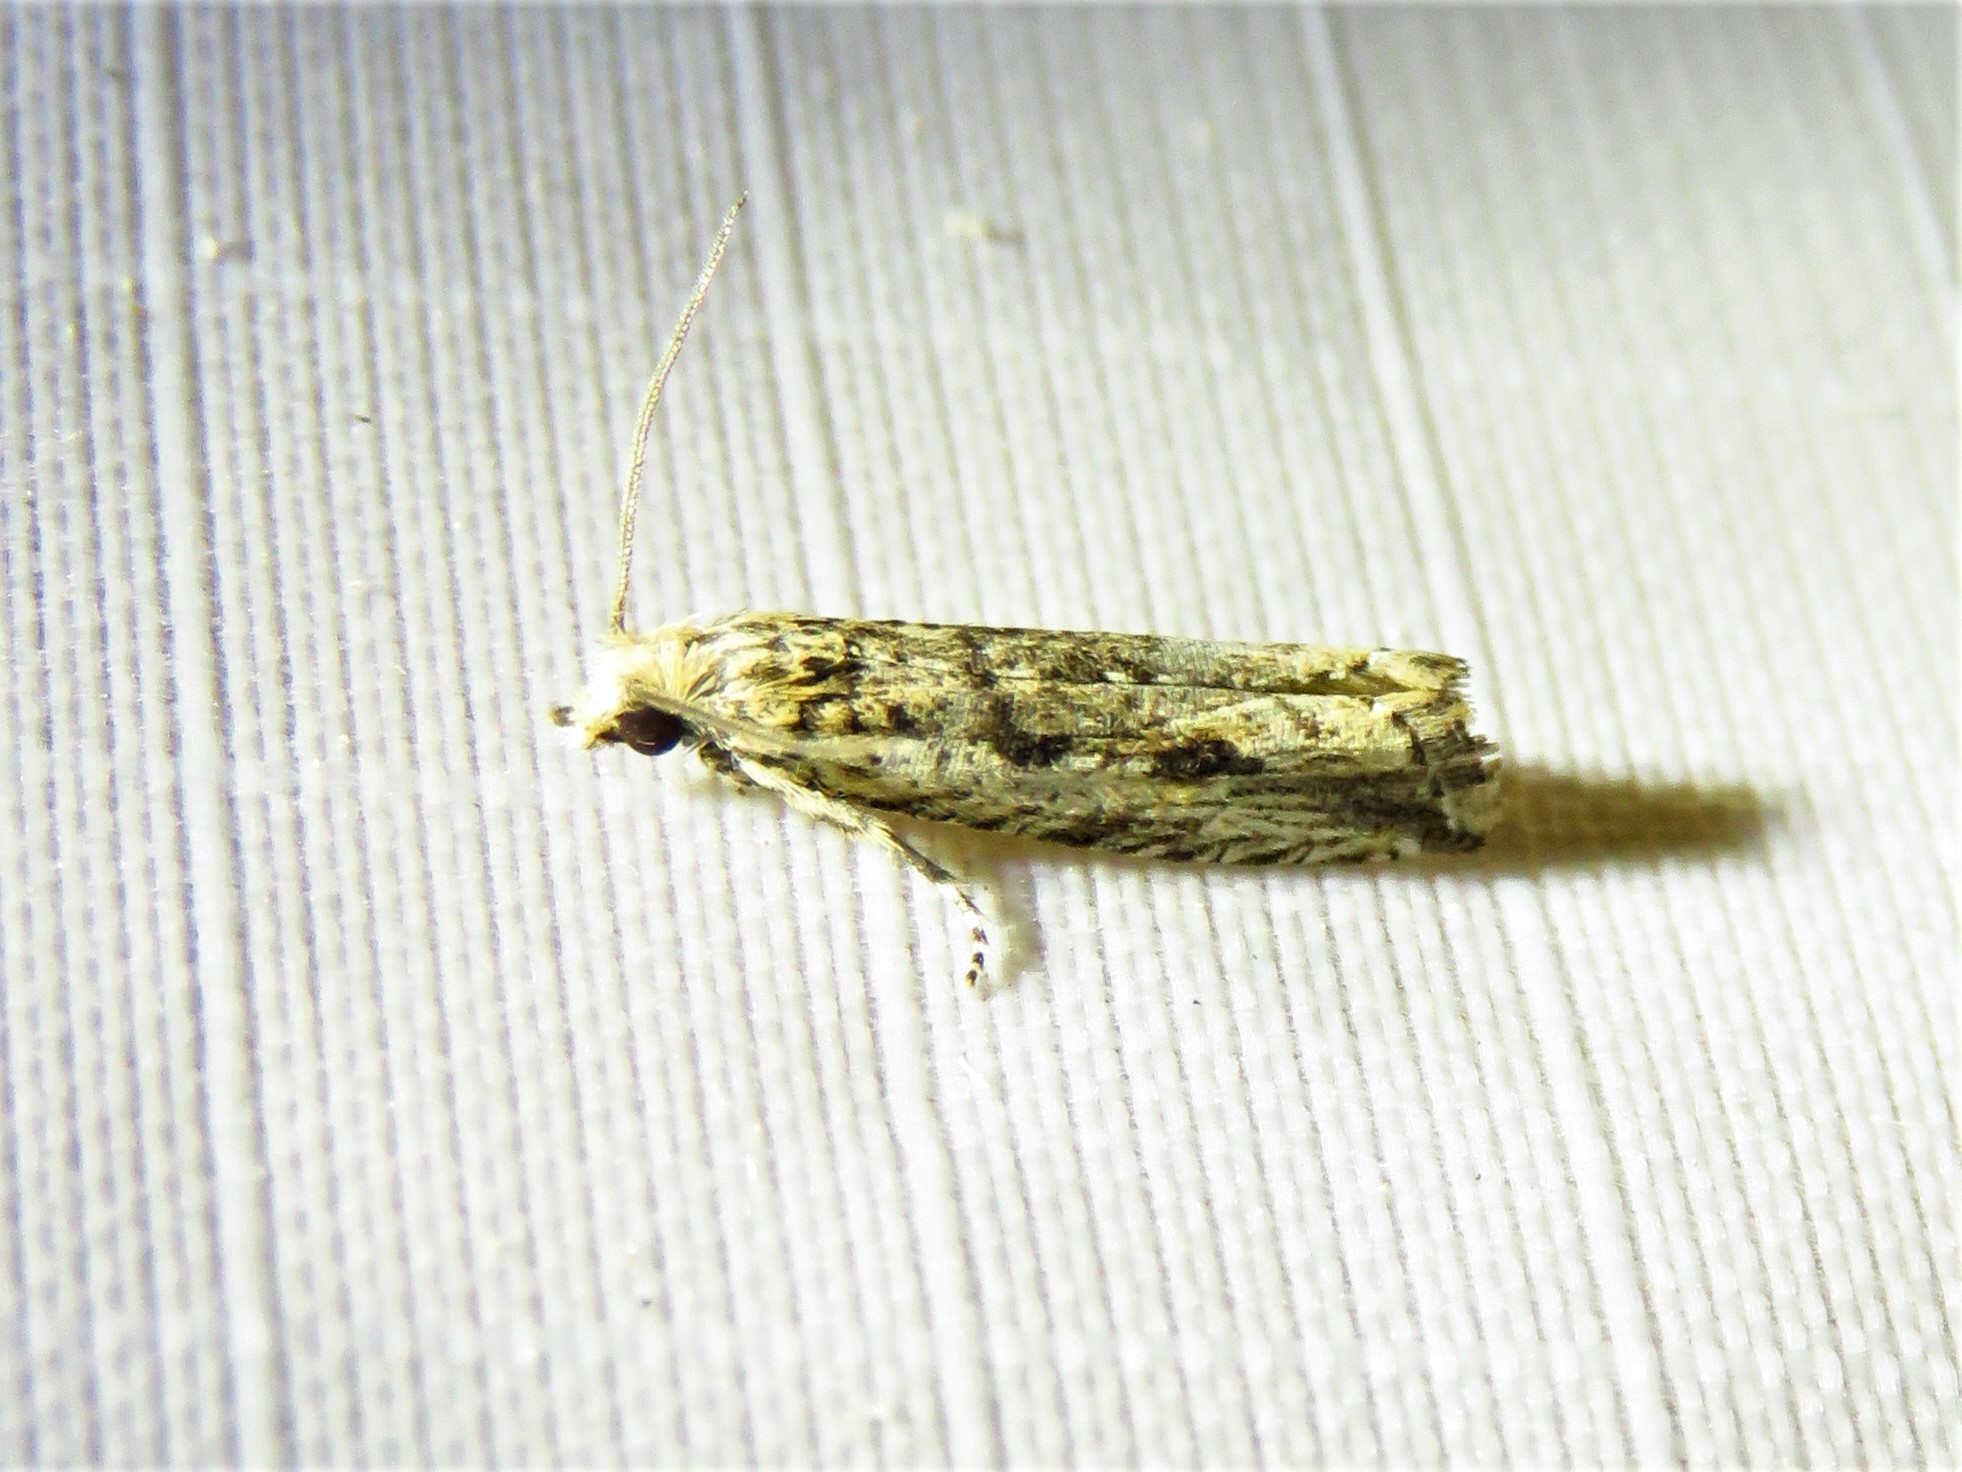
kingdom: Animalia
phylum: Arthropoda
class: Insecta
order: Lepidoptera
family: Tortricidae
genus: Bactra
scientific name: Bactra verutana
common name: Javelin moth
